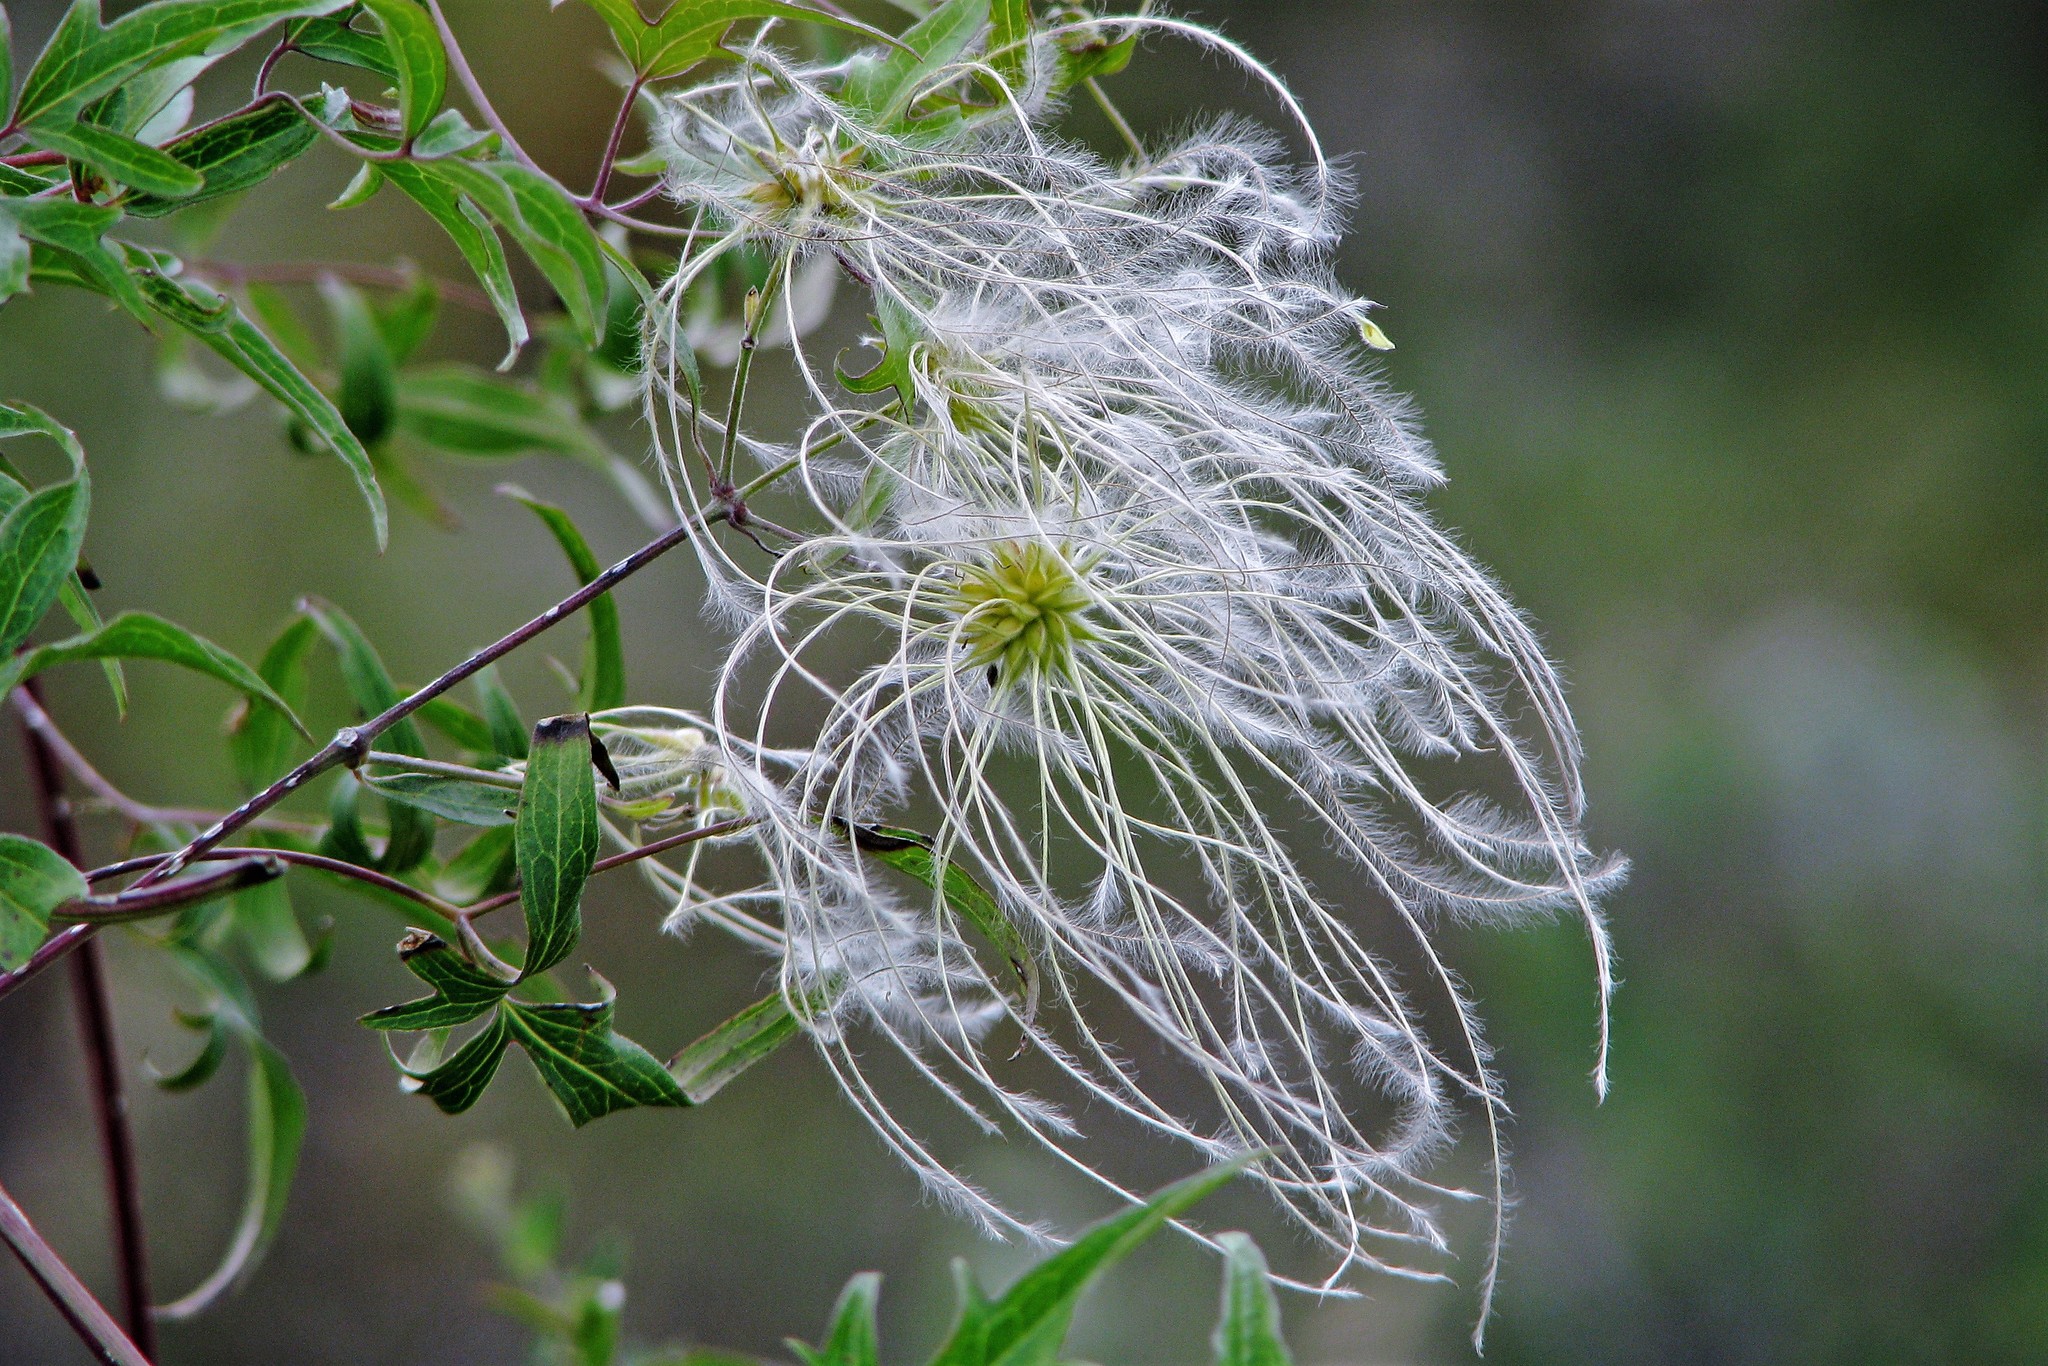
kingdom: Plantae
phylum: Tracheophyta
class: Magnoliopsida
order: Ranunculales
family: Ranunculaceae
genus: Clematis
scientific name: Clematis montevidensis
